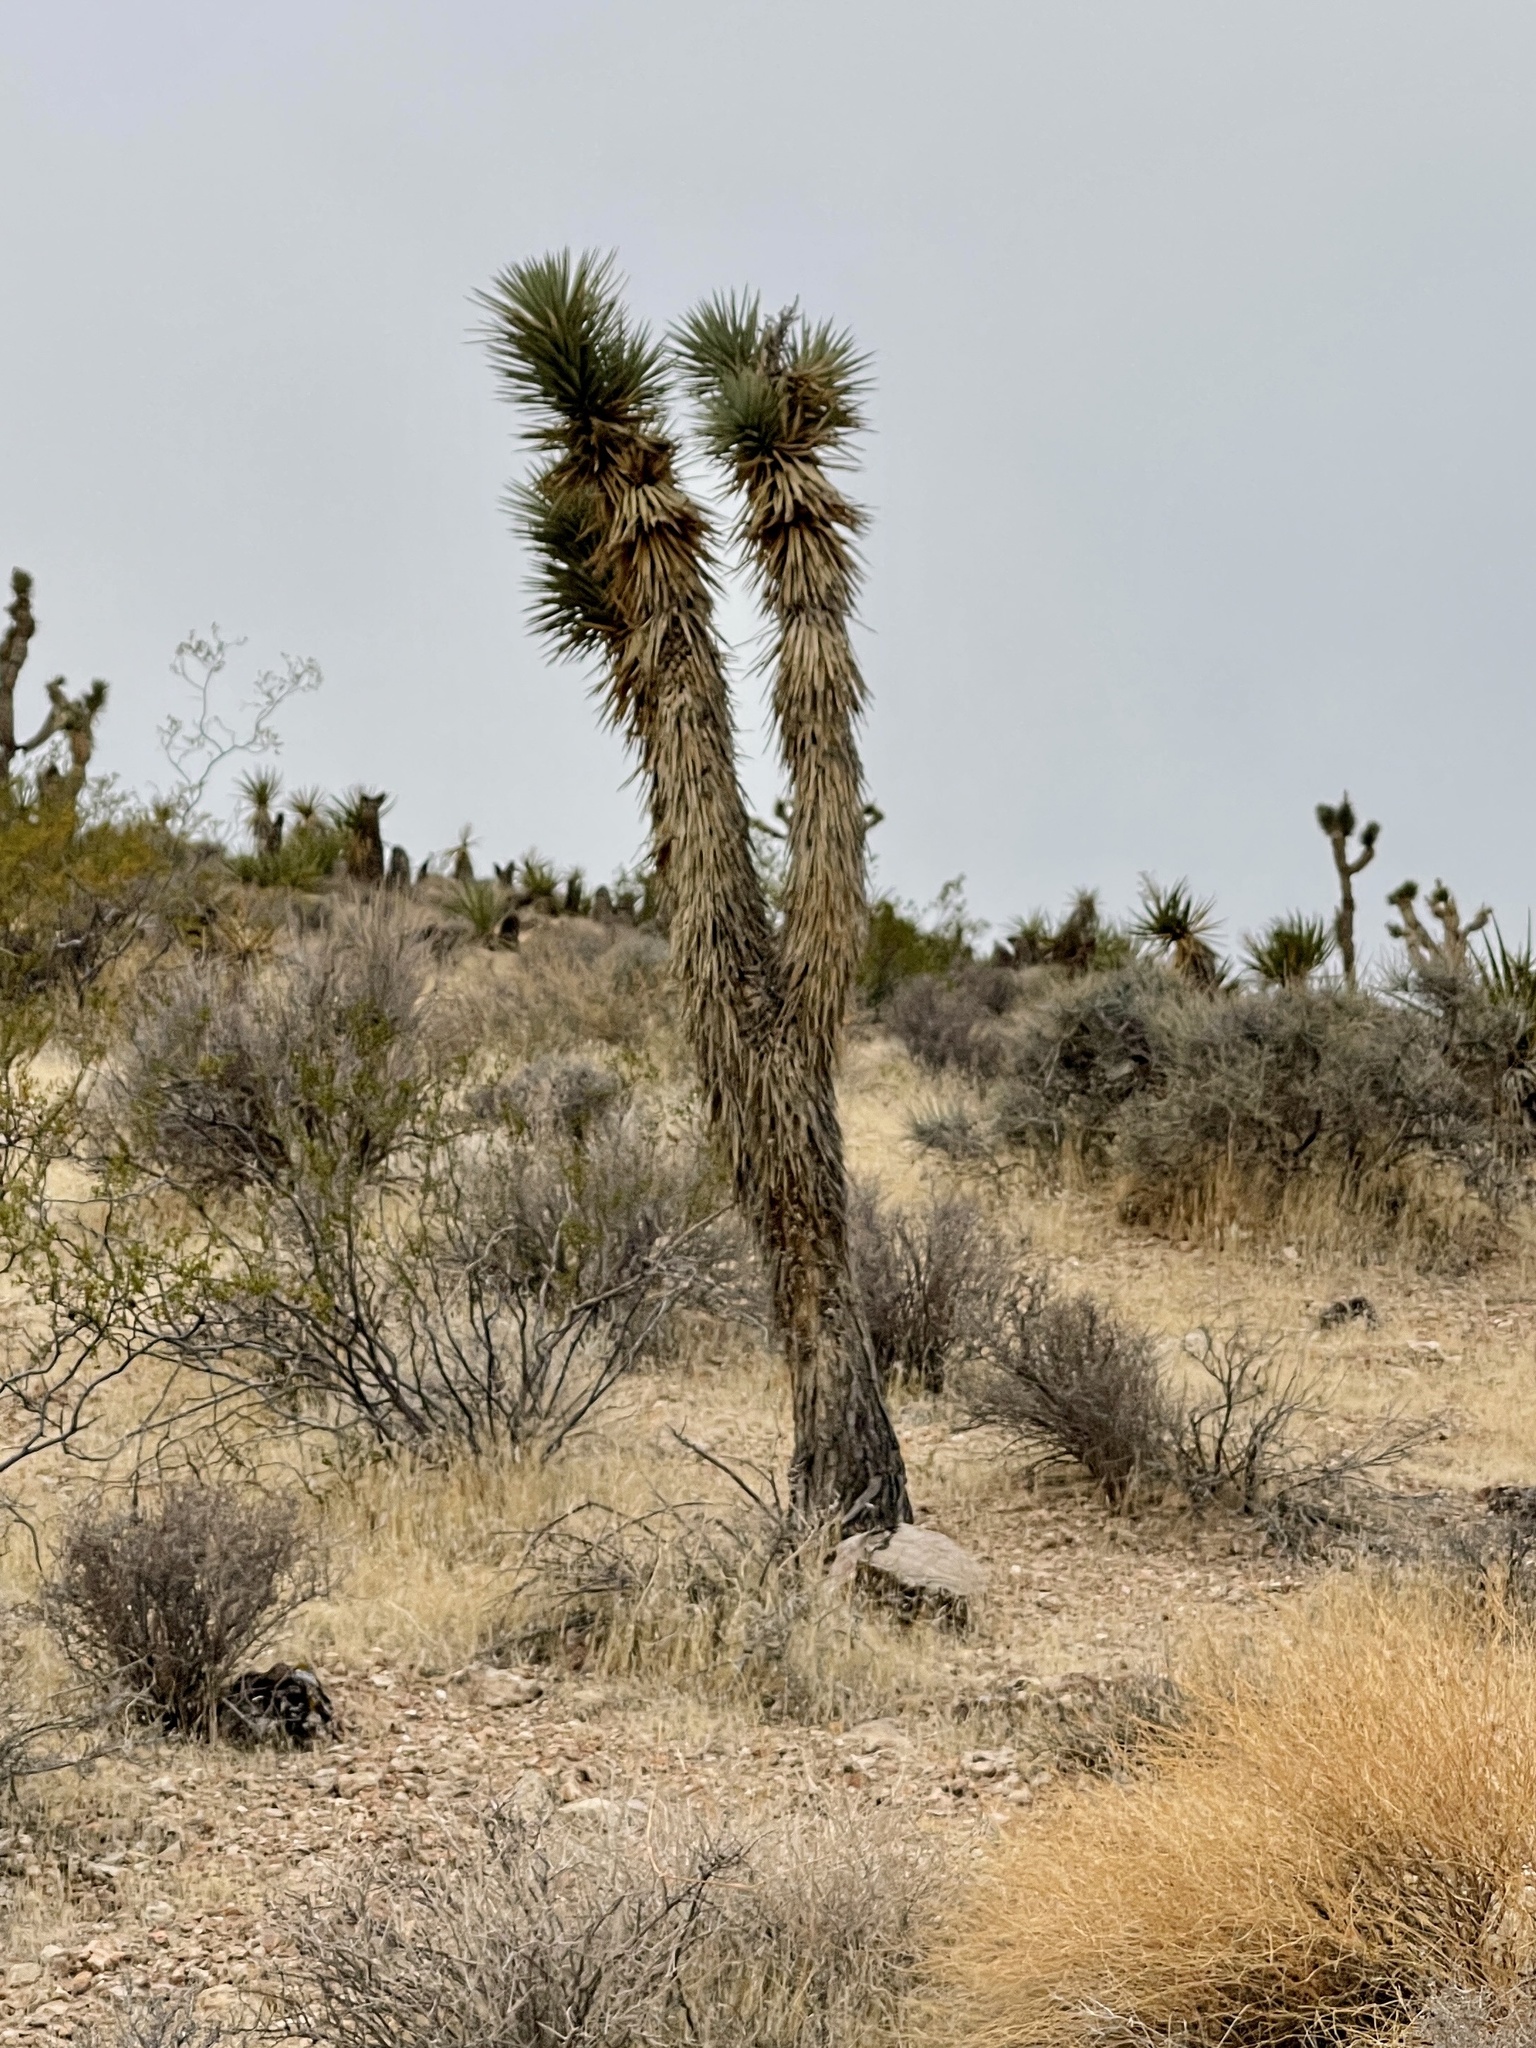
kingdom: Plantae
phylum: Tracheophyta
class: Liliopsida
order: Asparagales
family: Asparagaceae
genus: Yucca
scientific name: Yucca brevifolia
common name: Joshua tree
